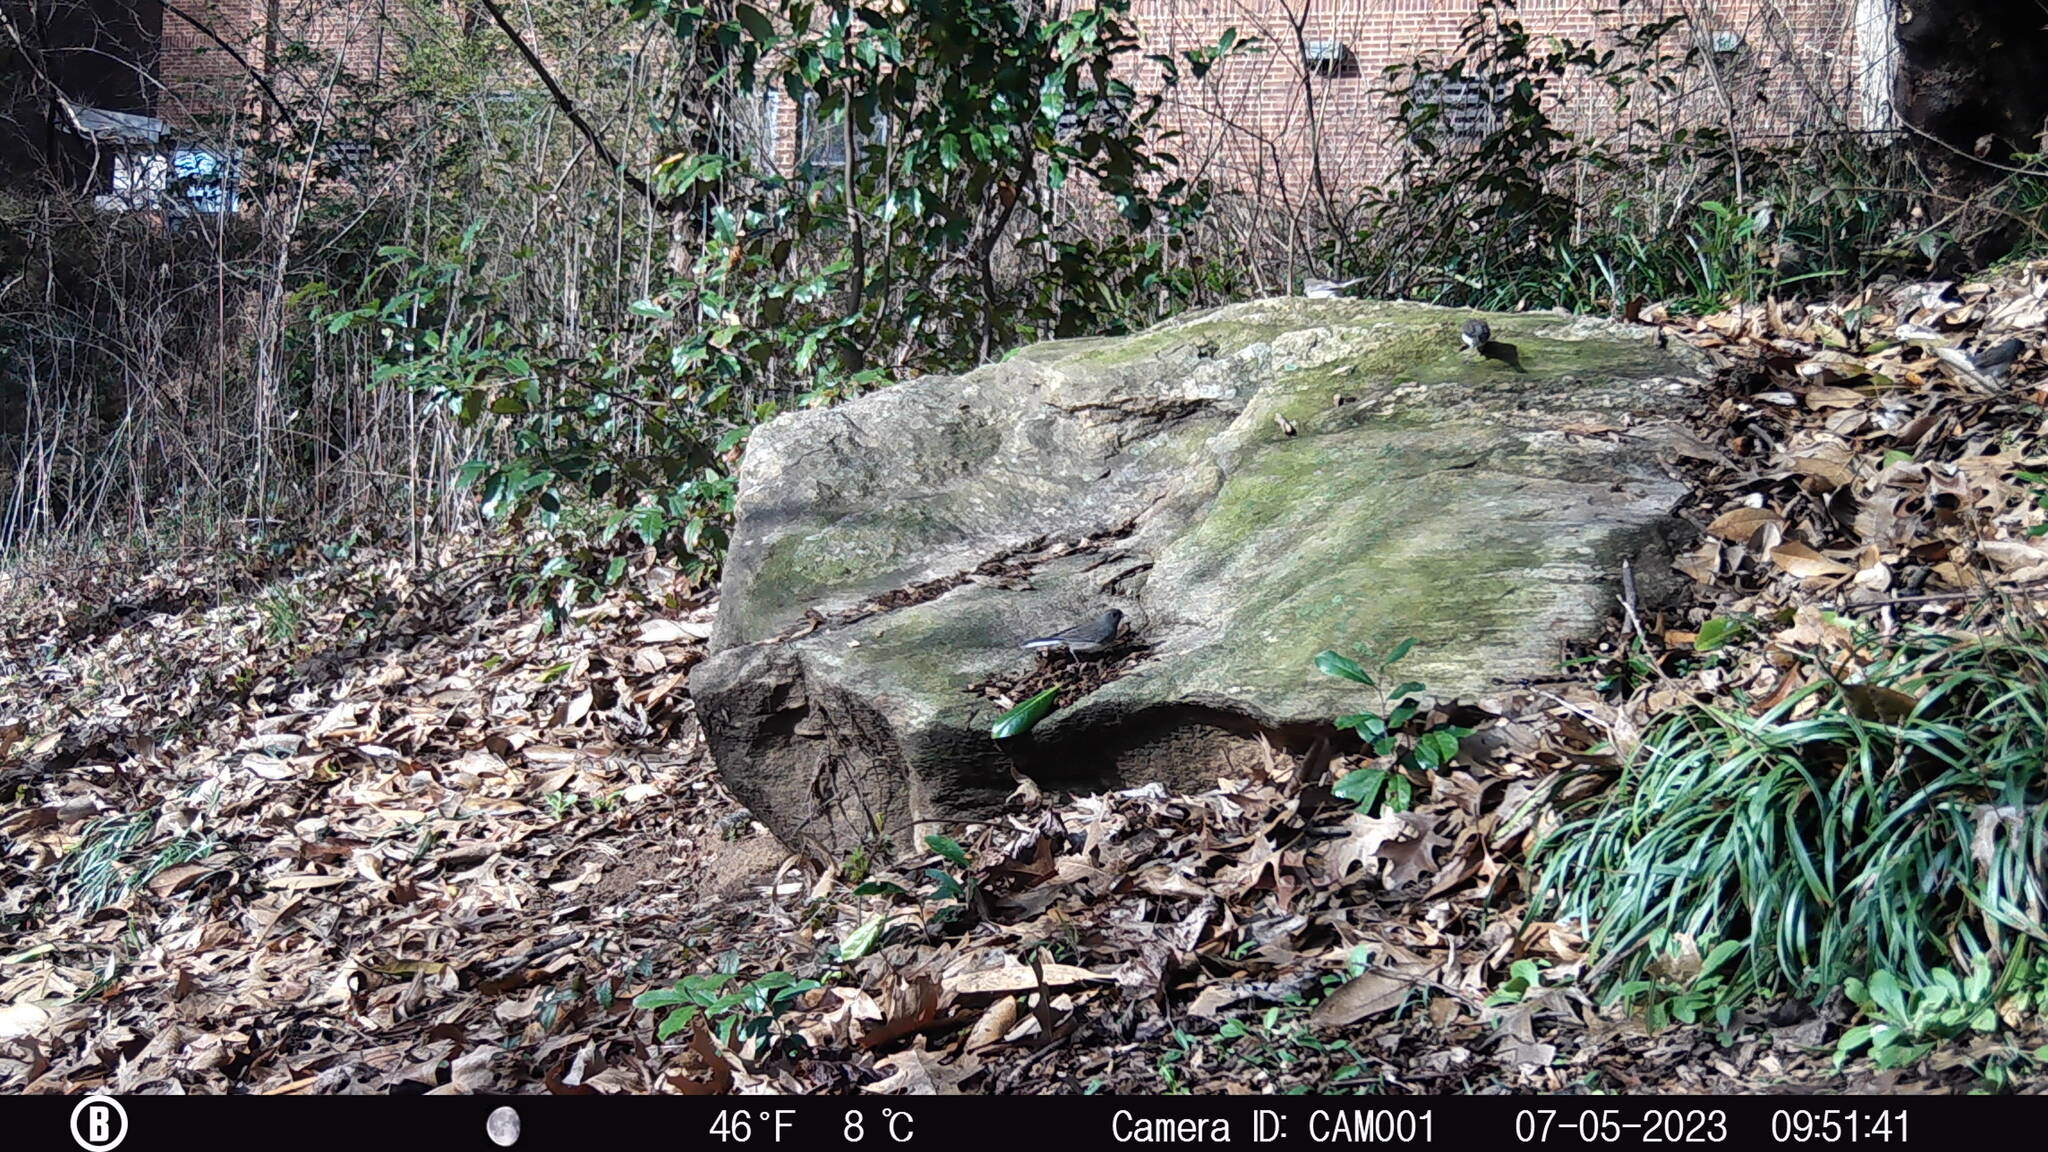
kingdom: Animalia
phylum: Chordata
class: Aves
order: Passeriformes
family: Passerellidae
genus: Junco
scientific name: Junco hyemalis
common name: Dark-eyed junco
